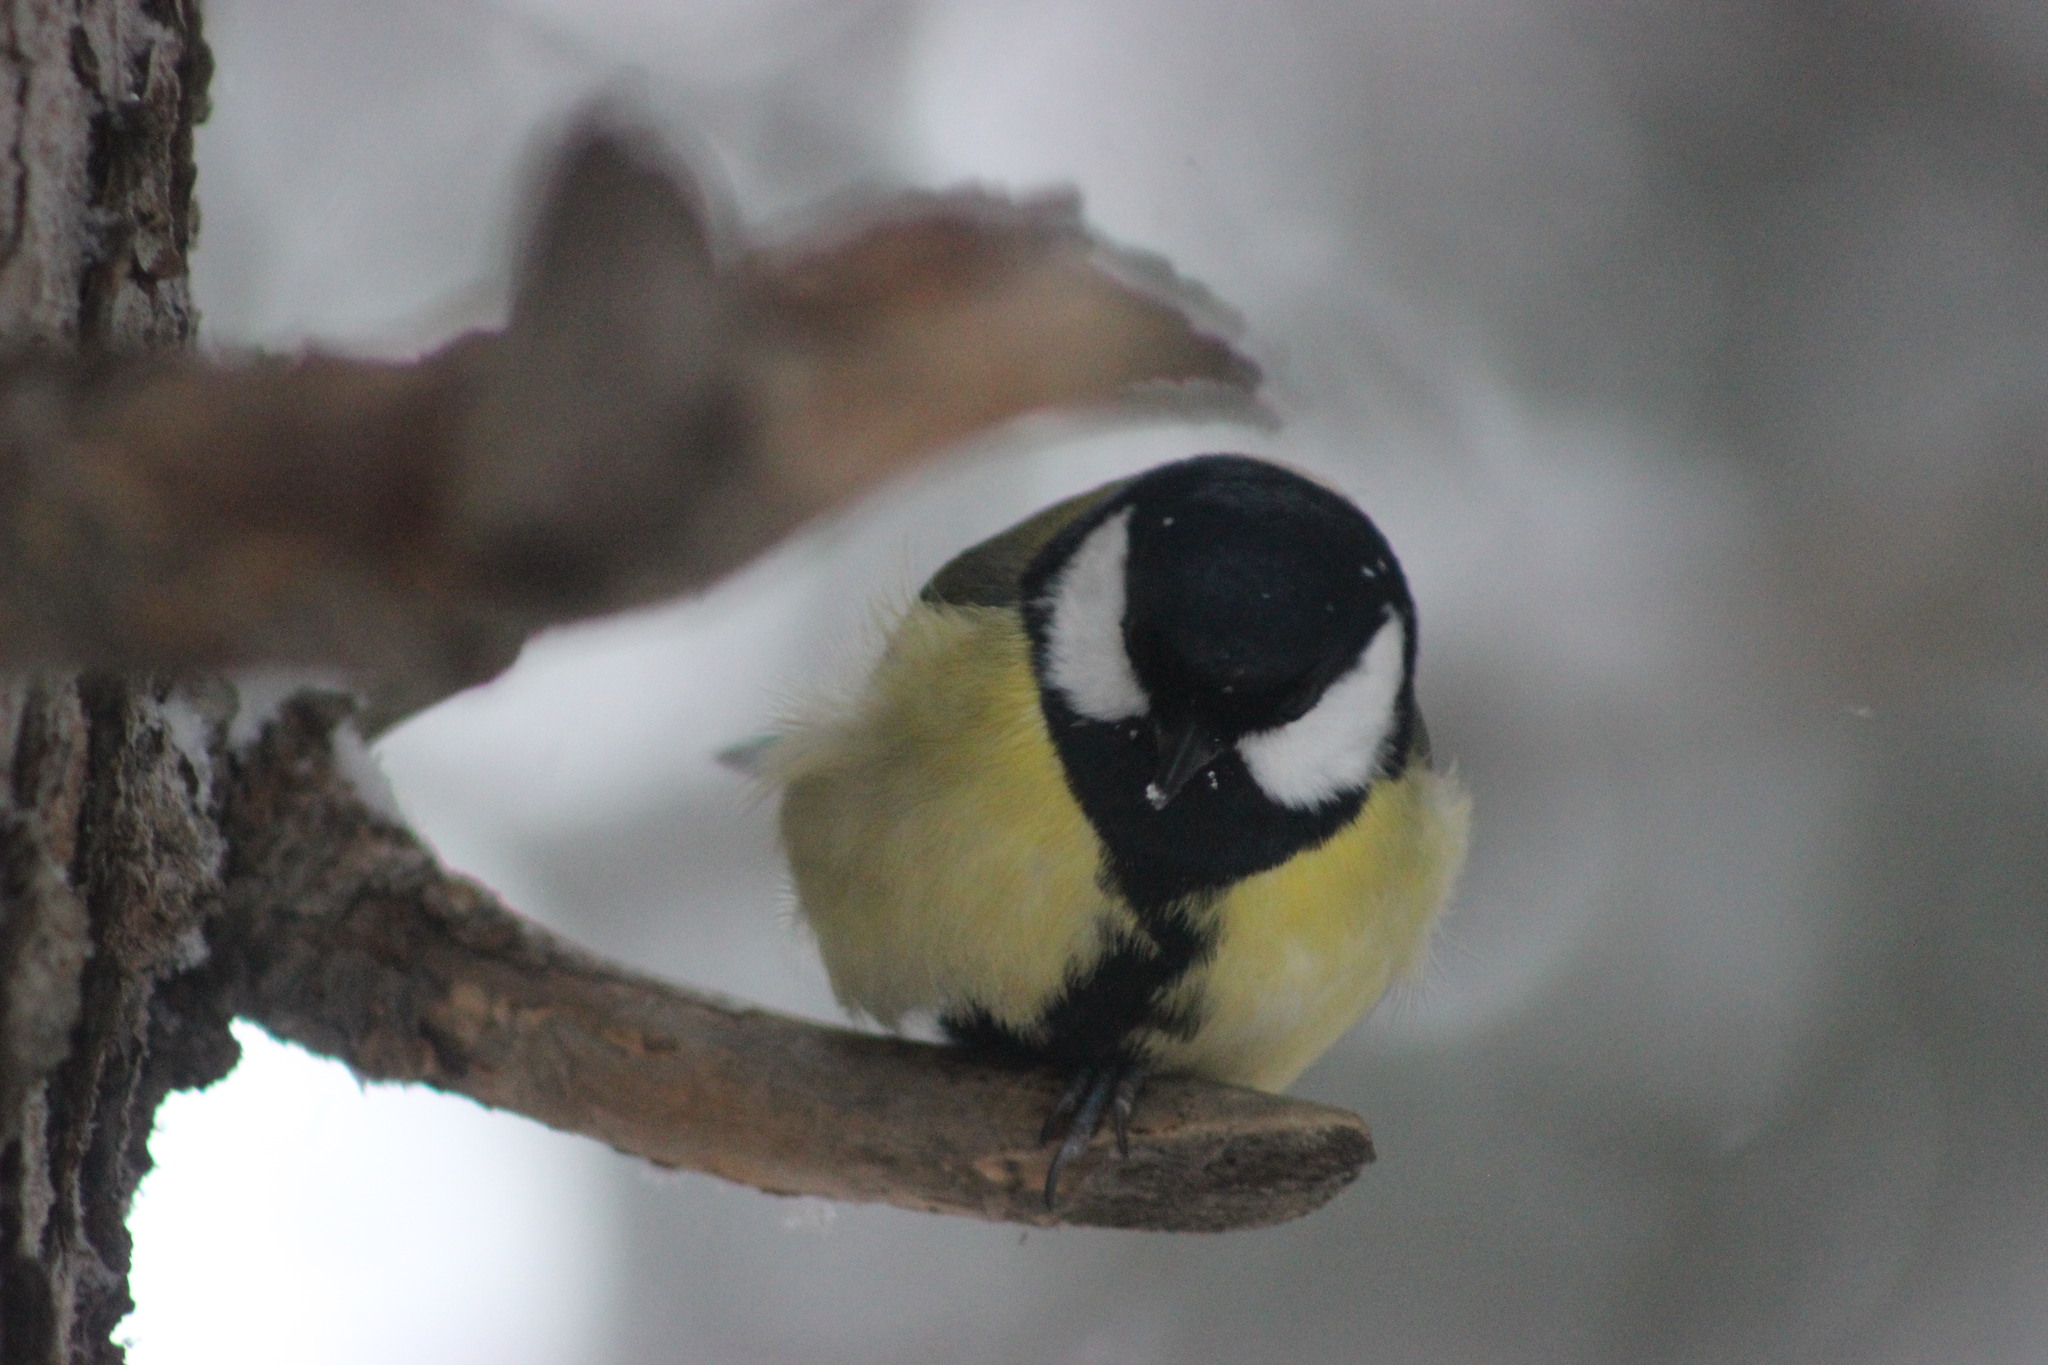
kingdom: Animalia
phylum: Chordata
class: Aves
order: Passeriformes
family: Paridae
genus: Parus
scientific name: Parus major
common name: Great tit
